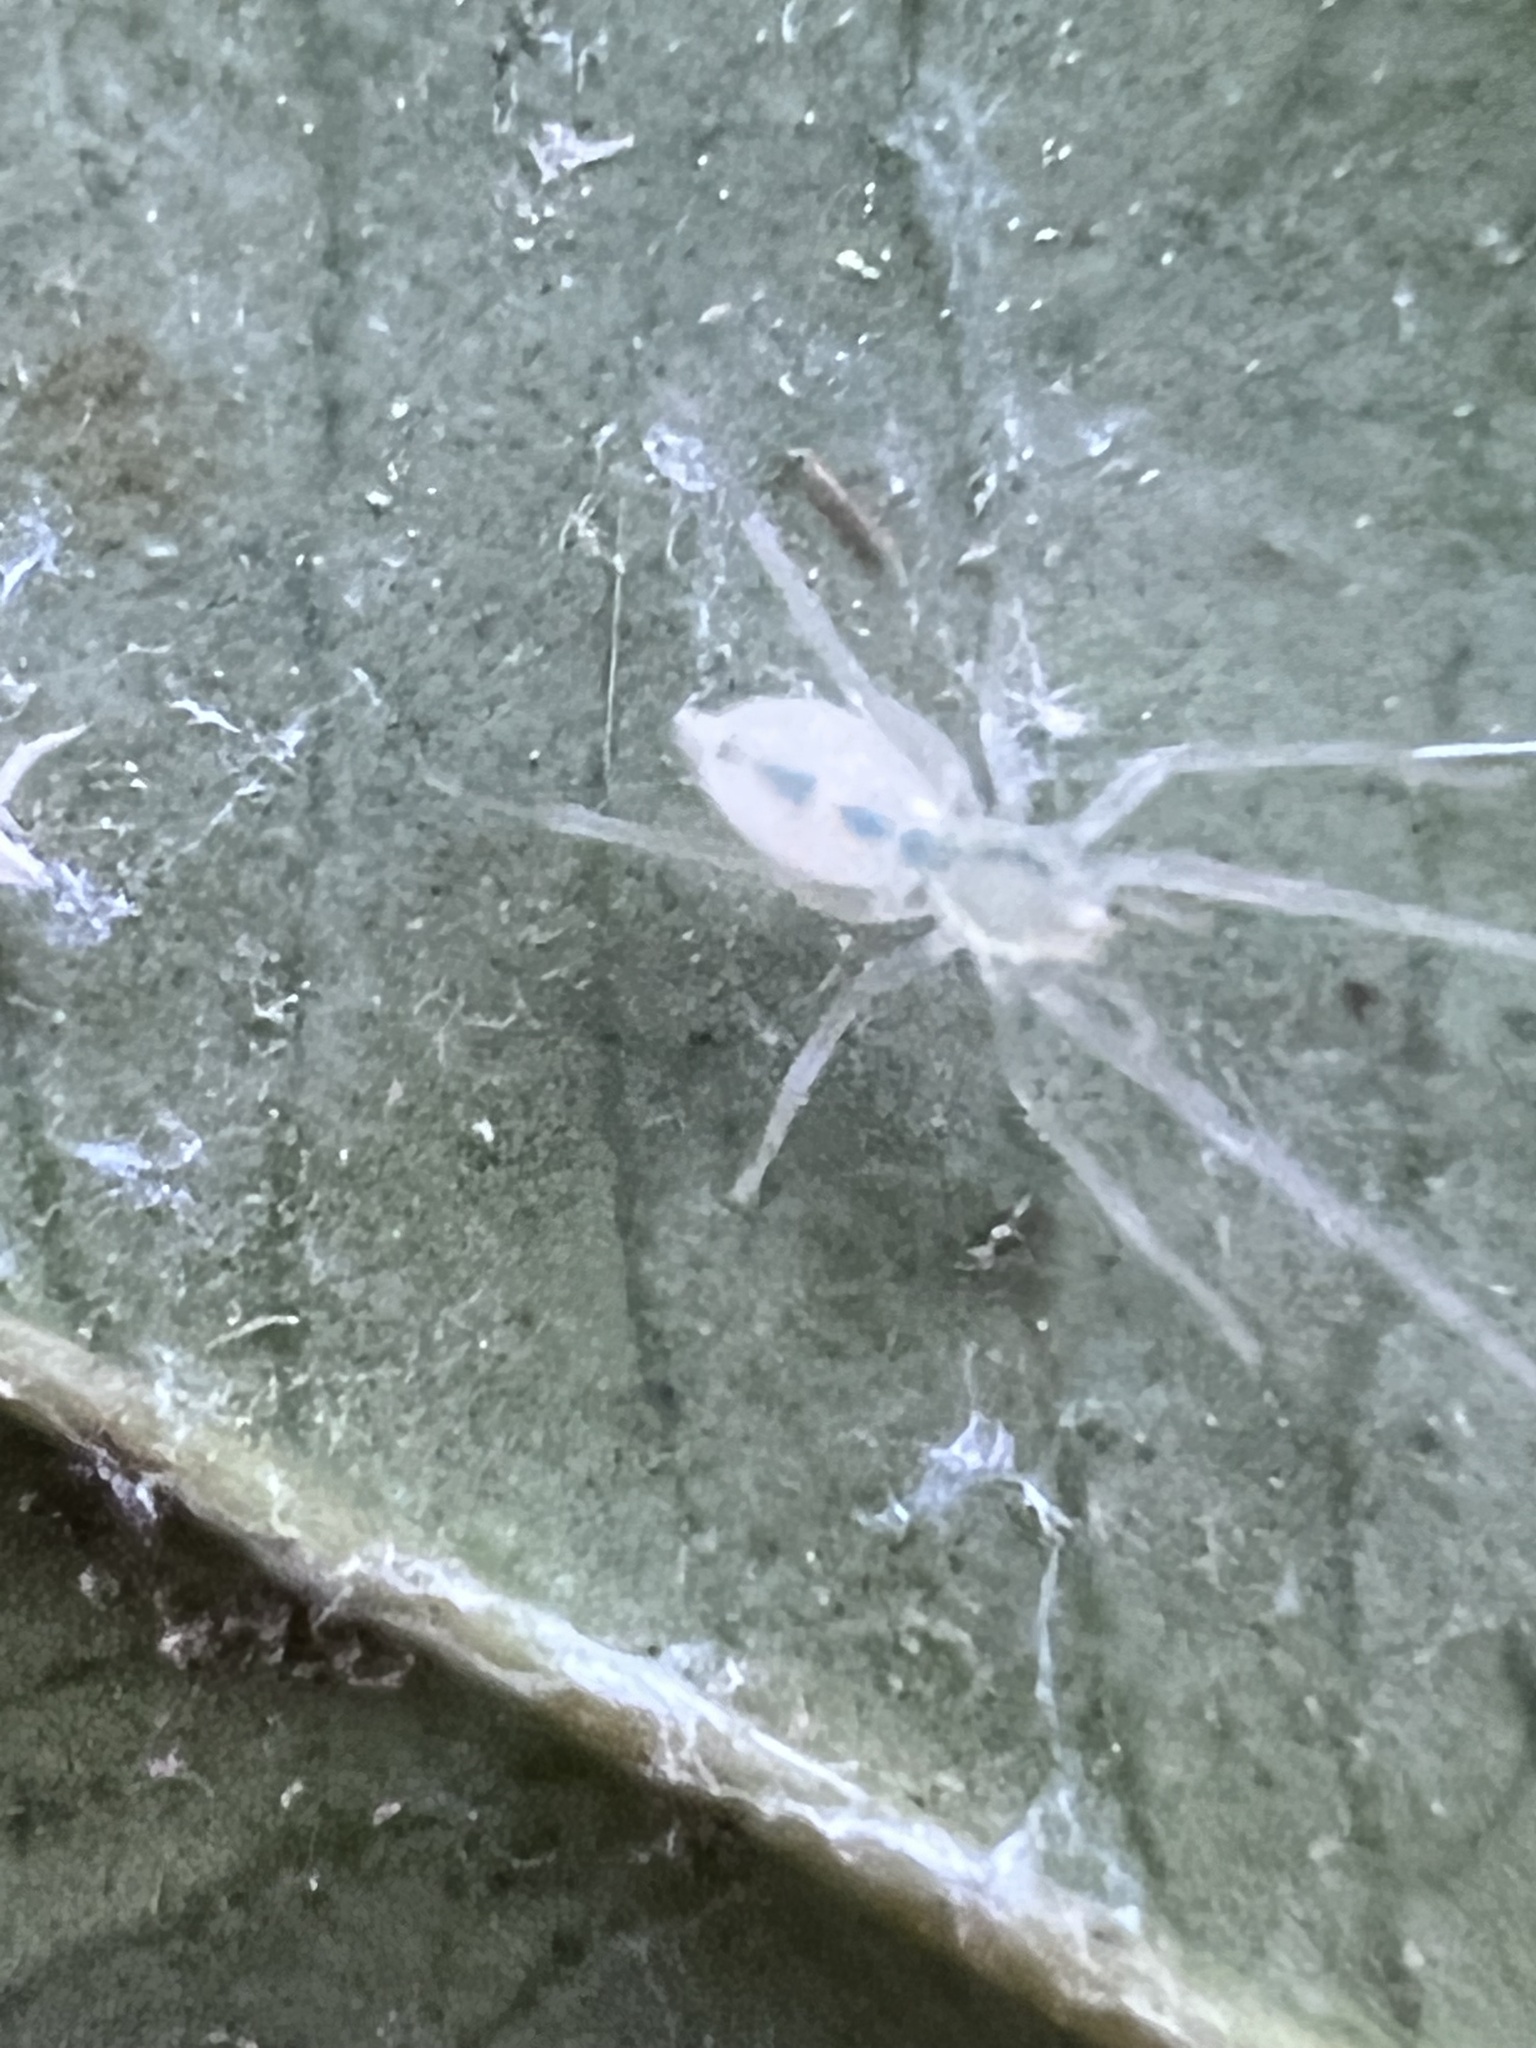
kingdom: Animalia
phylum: Arthropoda
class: Arachnida
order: Araneae
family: Anyphaenidae
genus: Wulfila
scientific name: Wulfila albens
